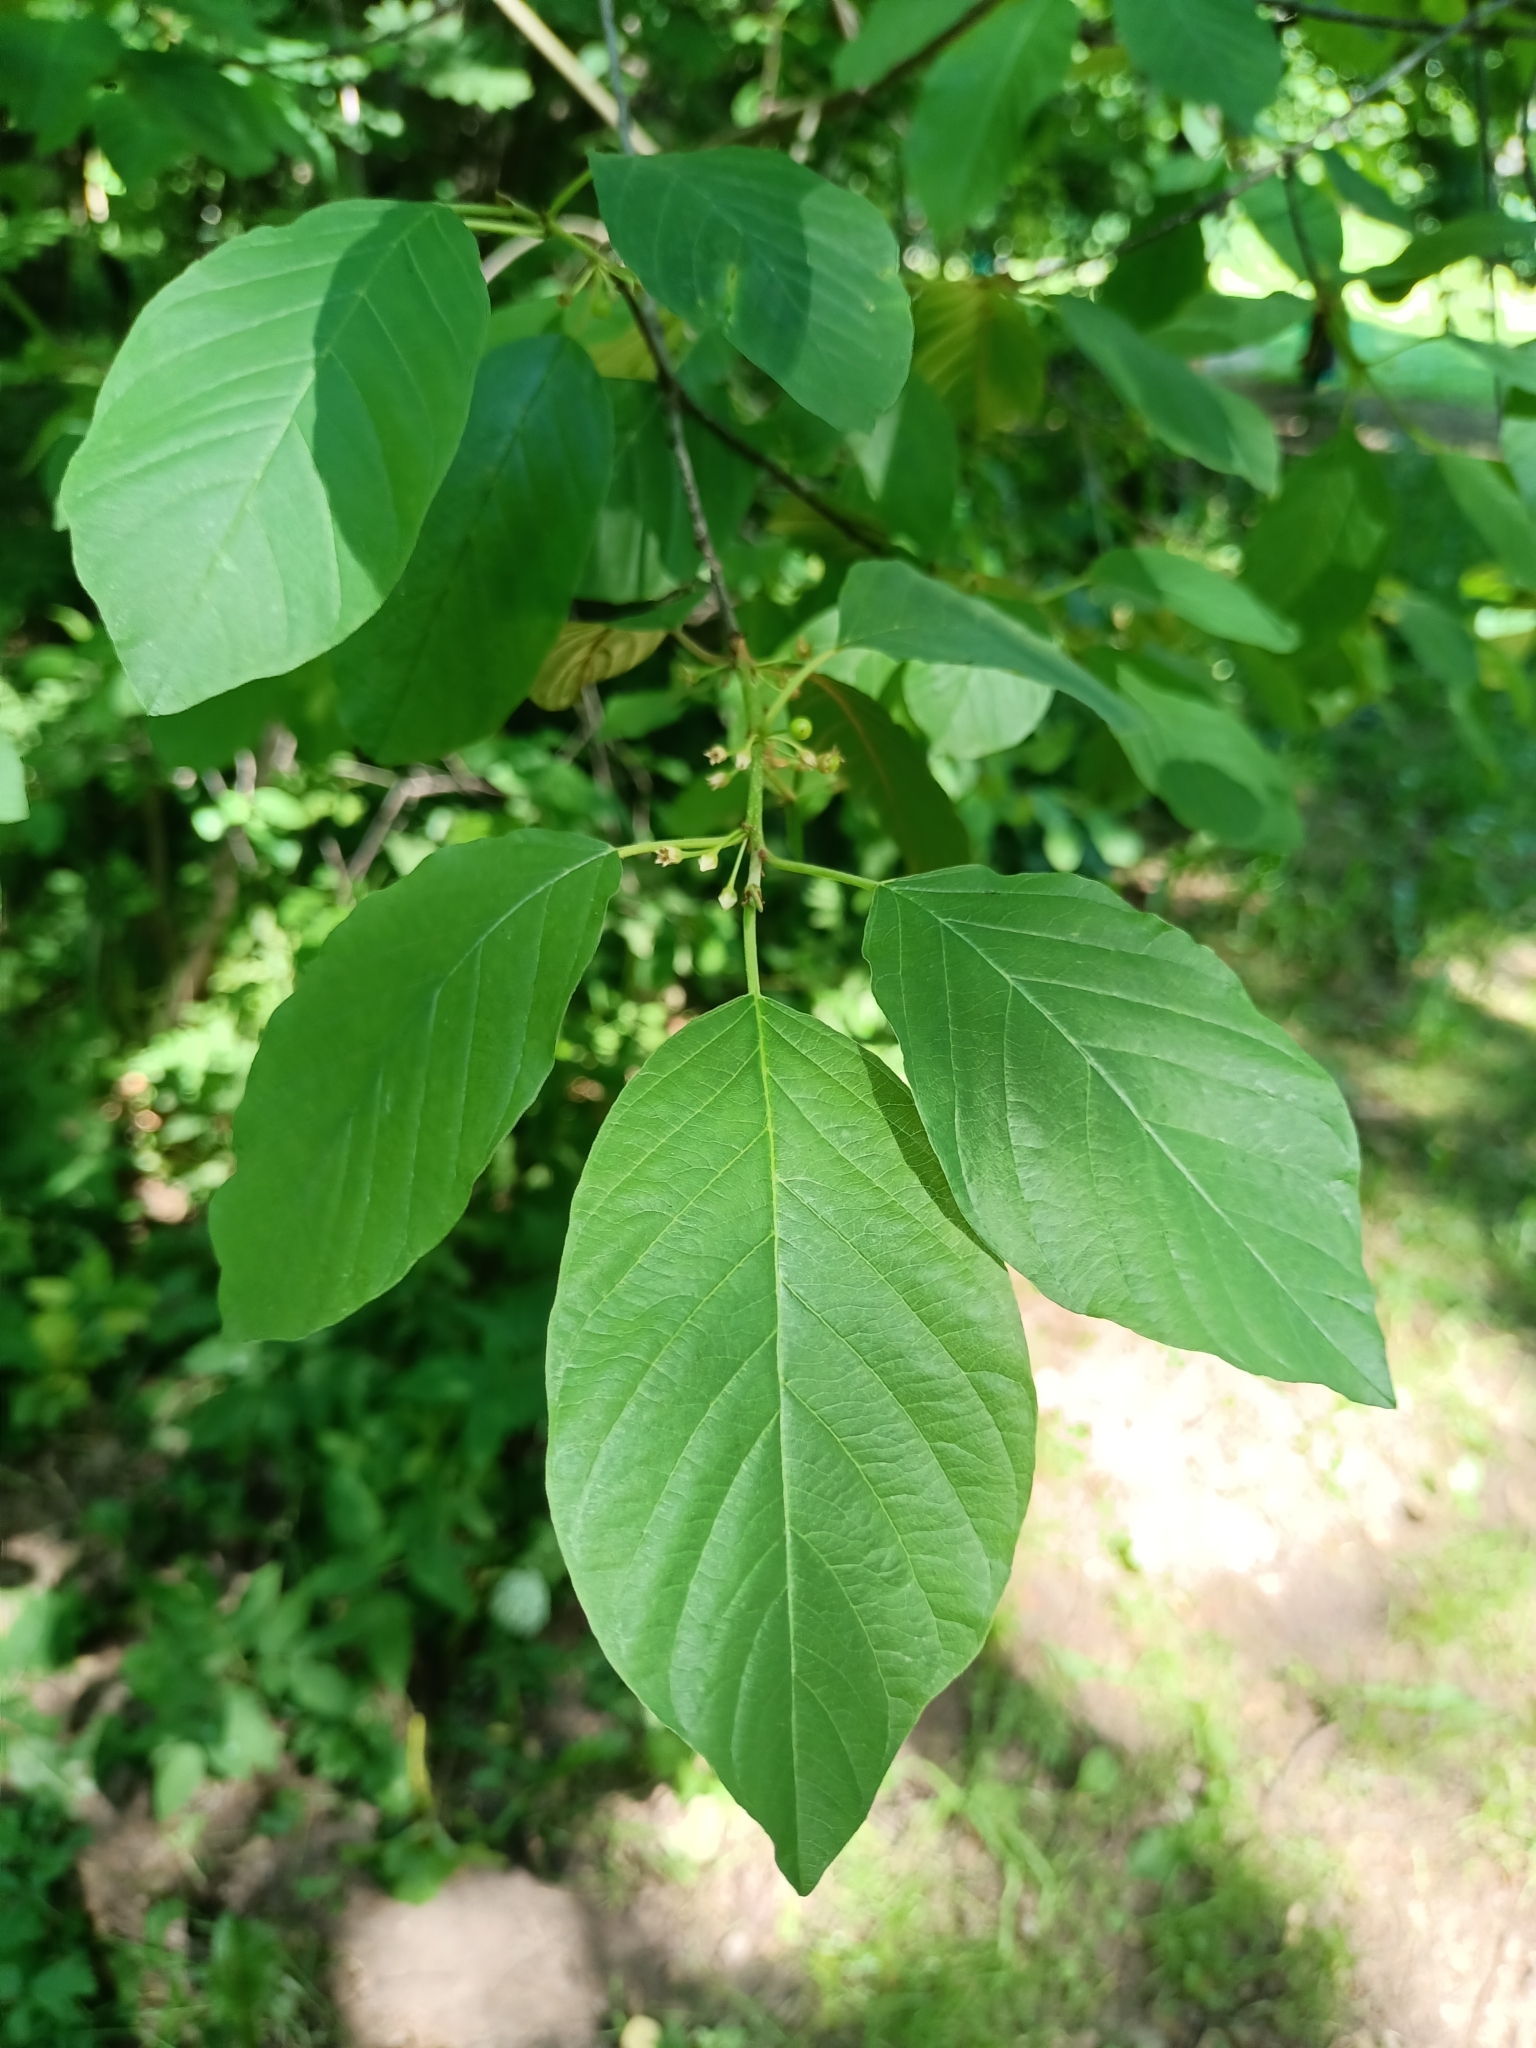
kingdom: Plantae
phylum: Tracheophyta
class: Magnoliopsida
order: Rosales
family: Rhamnaceae
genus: Frangula
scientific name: Frangula alnus
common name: Alder buckthorn
